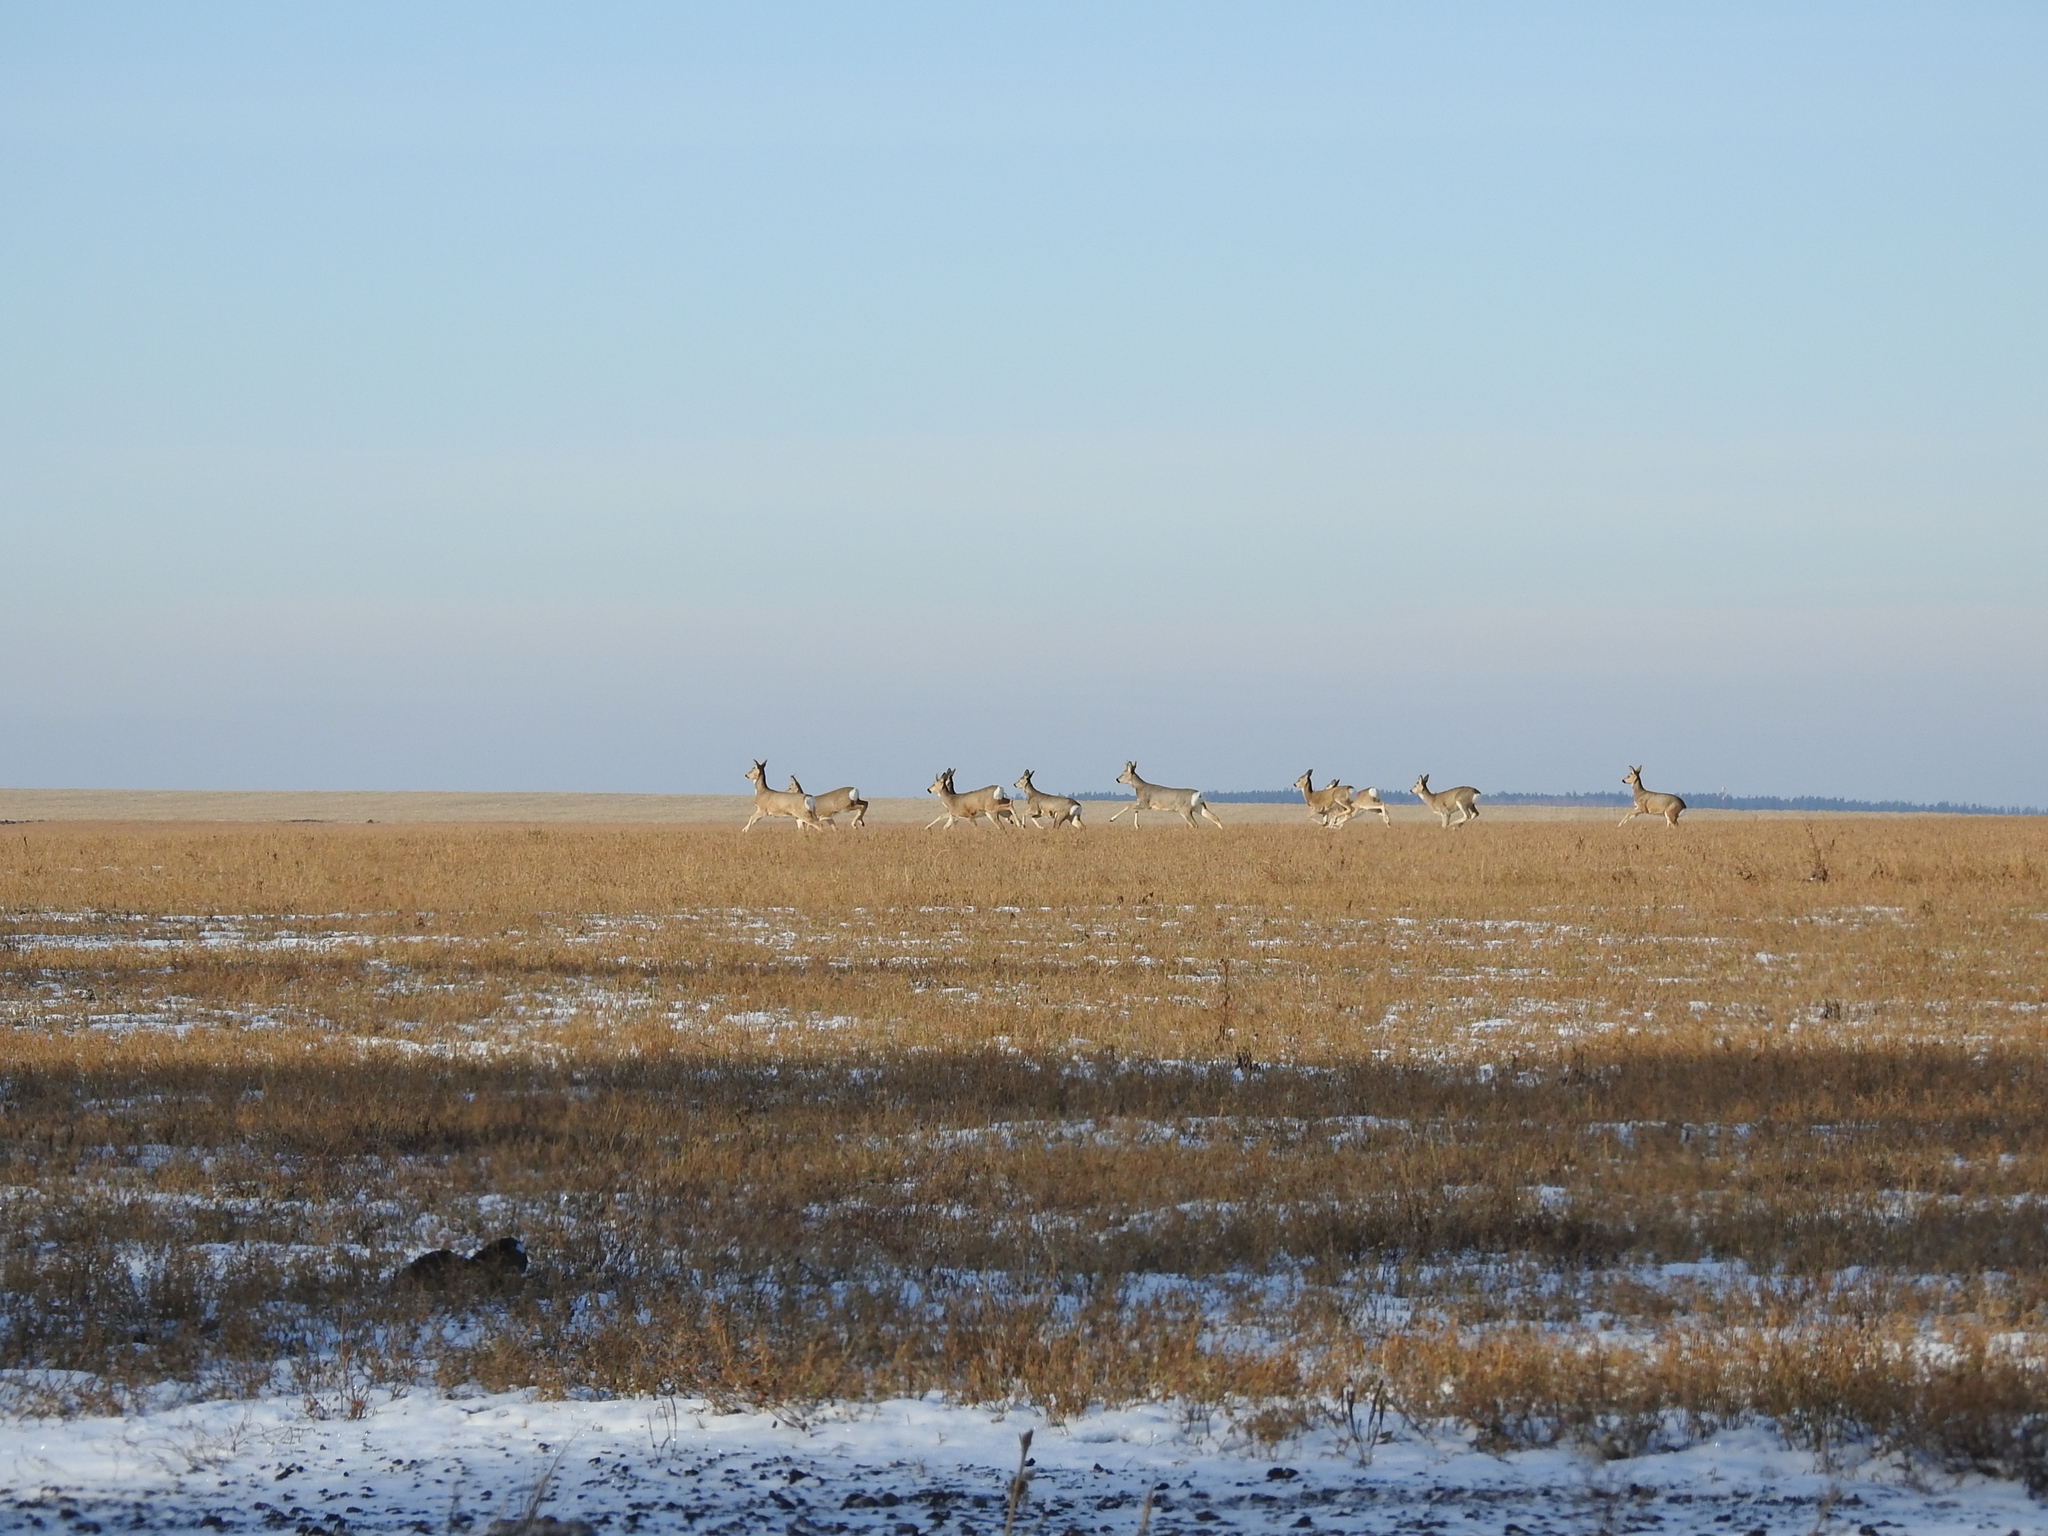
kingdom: Animalia
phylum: Chordata
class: Mammalia
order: Artiodactyla
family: Cervidae
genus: Capreolus
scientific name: Capreolus pygargus
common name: Siberian roe
